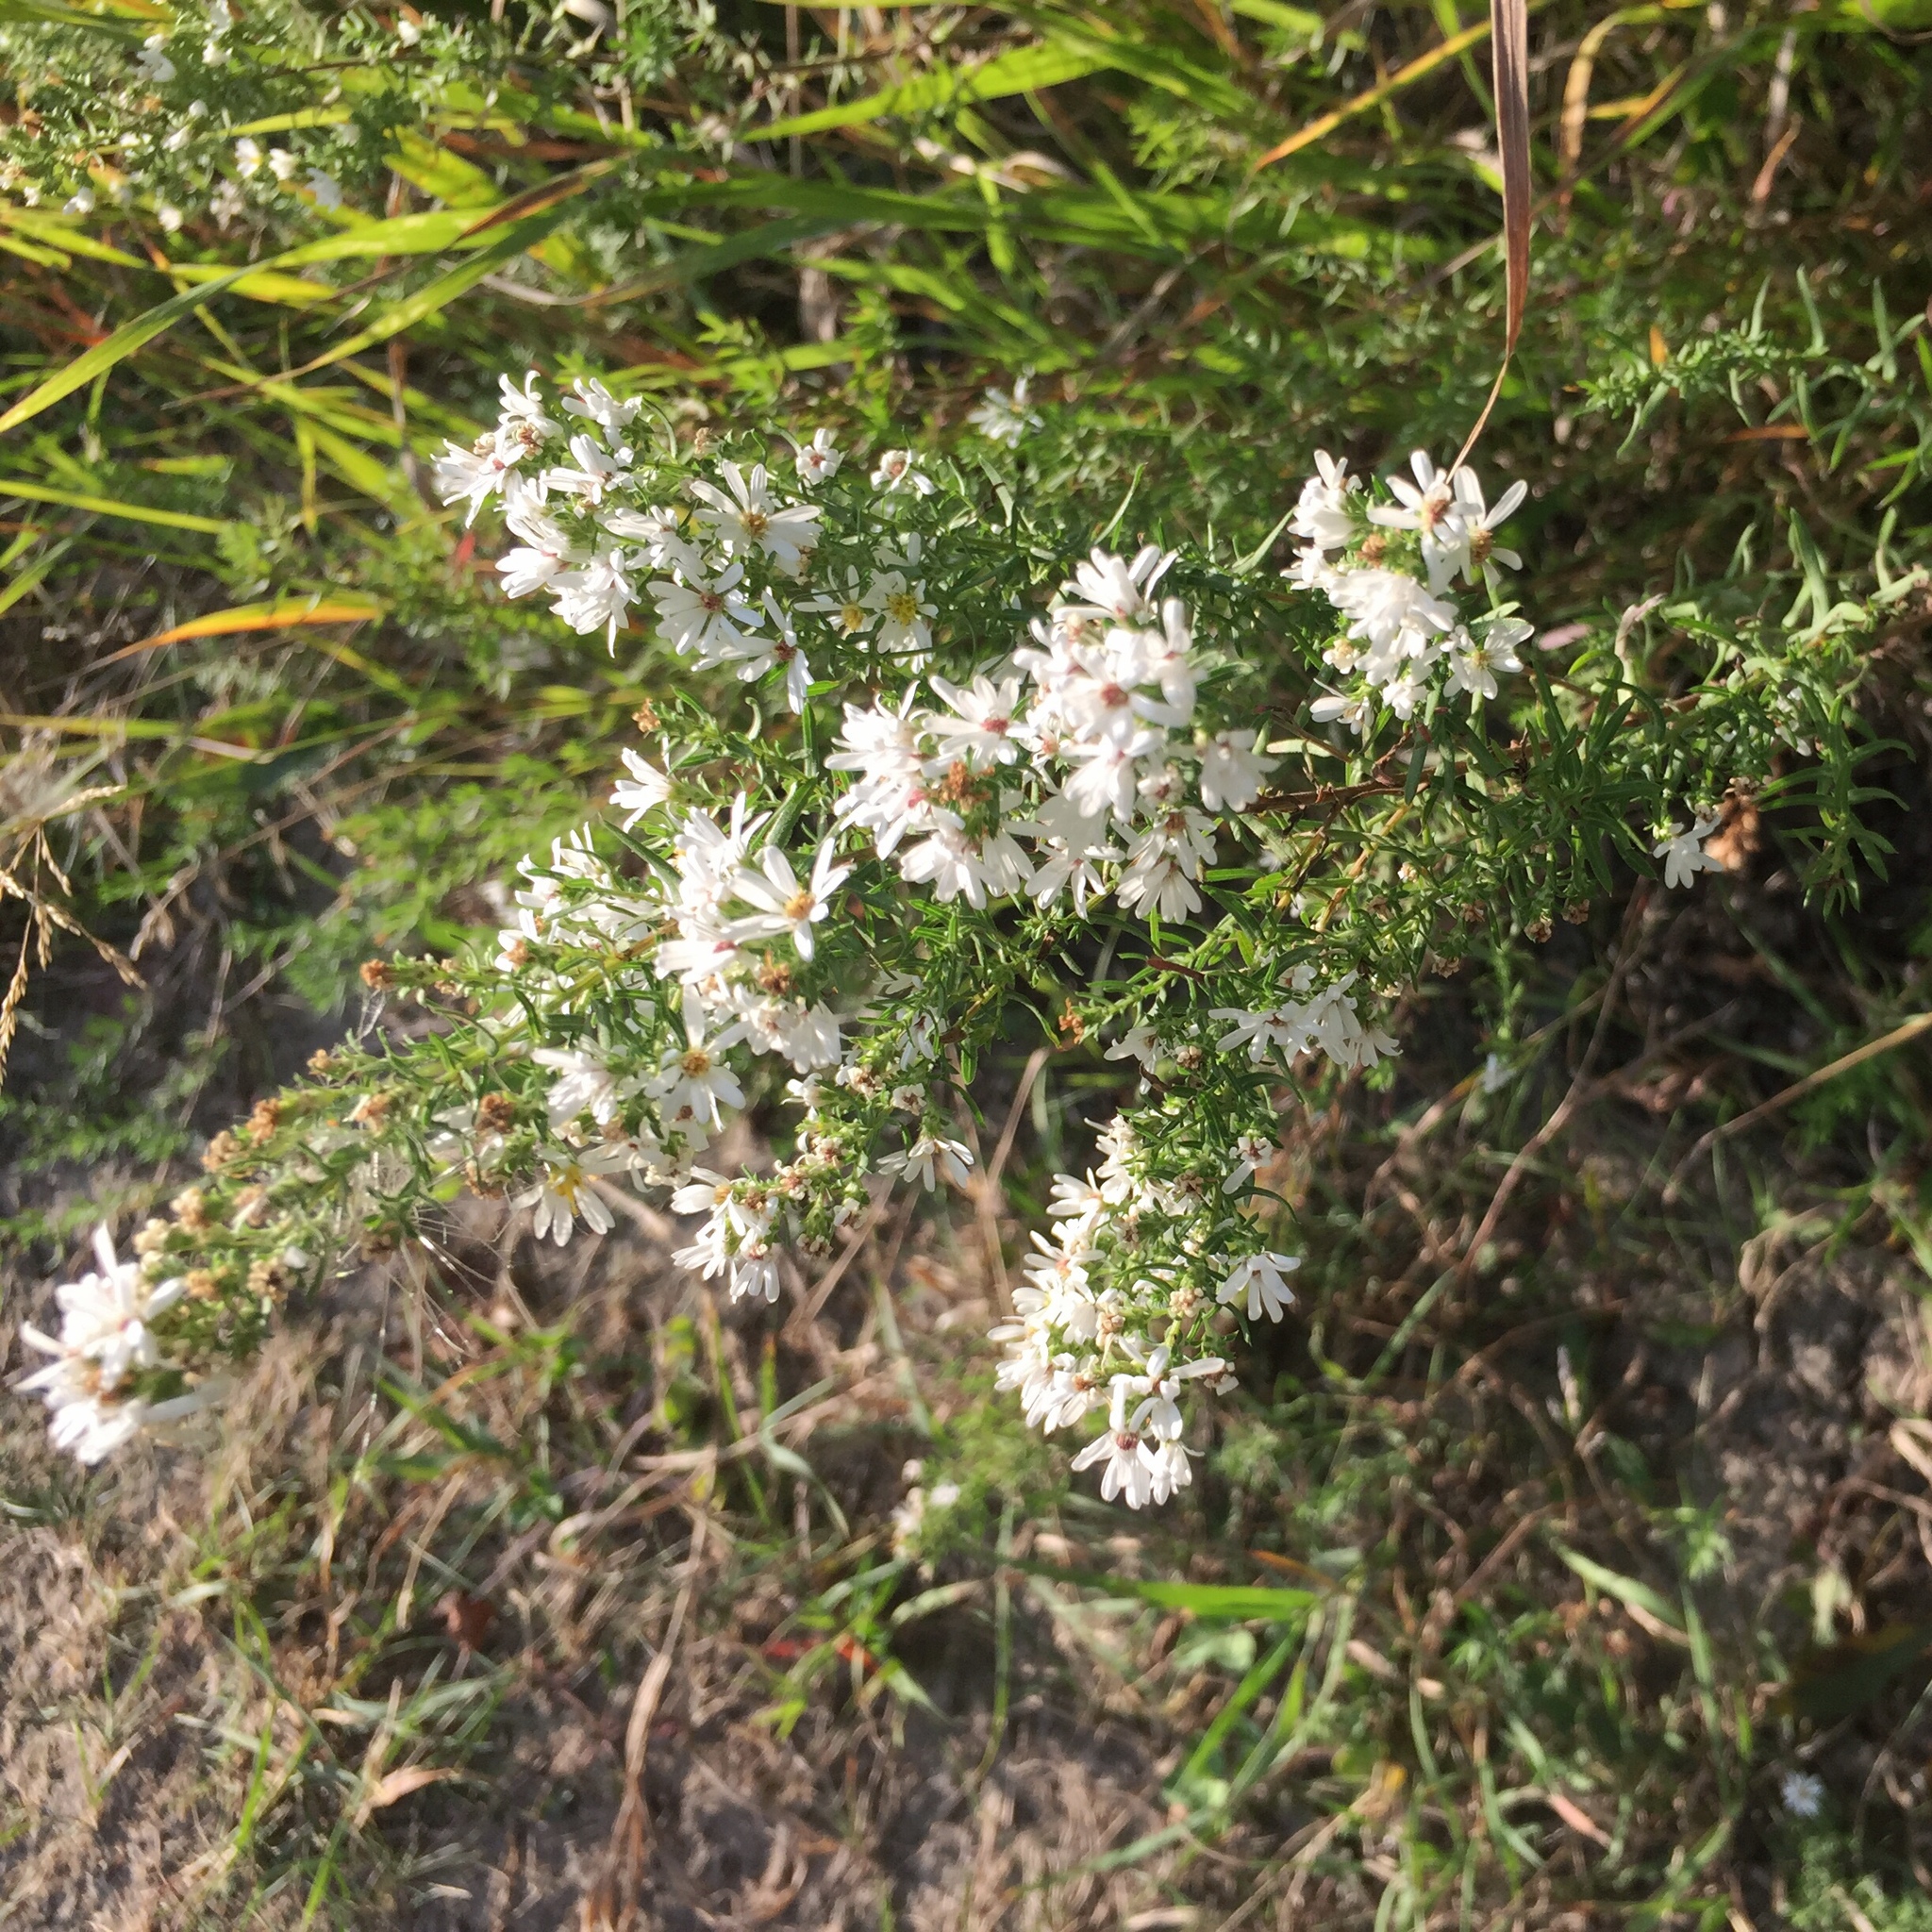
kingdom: Plantae
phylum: Tracheophyta
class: Magnoliopsida
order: Asterales
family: Asteraceae
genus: Symphyotrichum
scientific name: Symphyotrichum ericoides
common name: Heath aster
